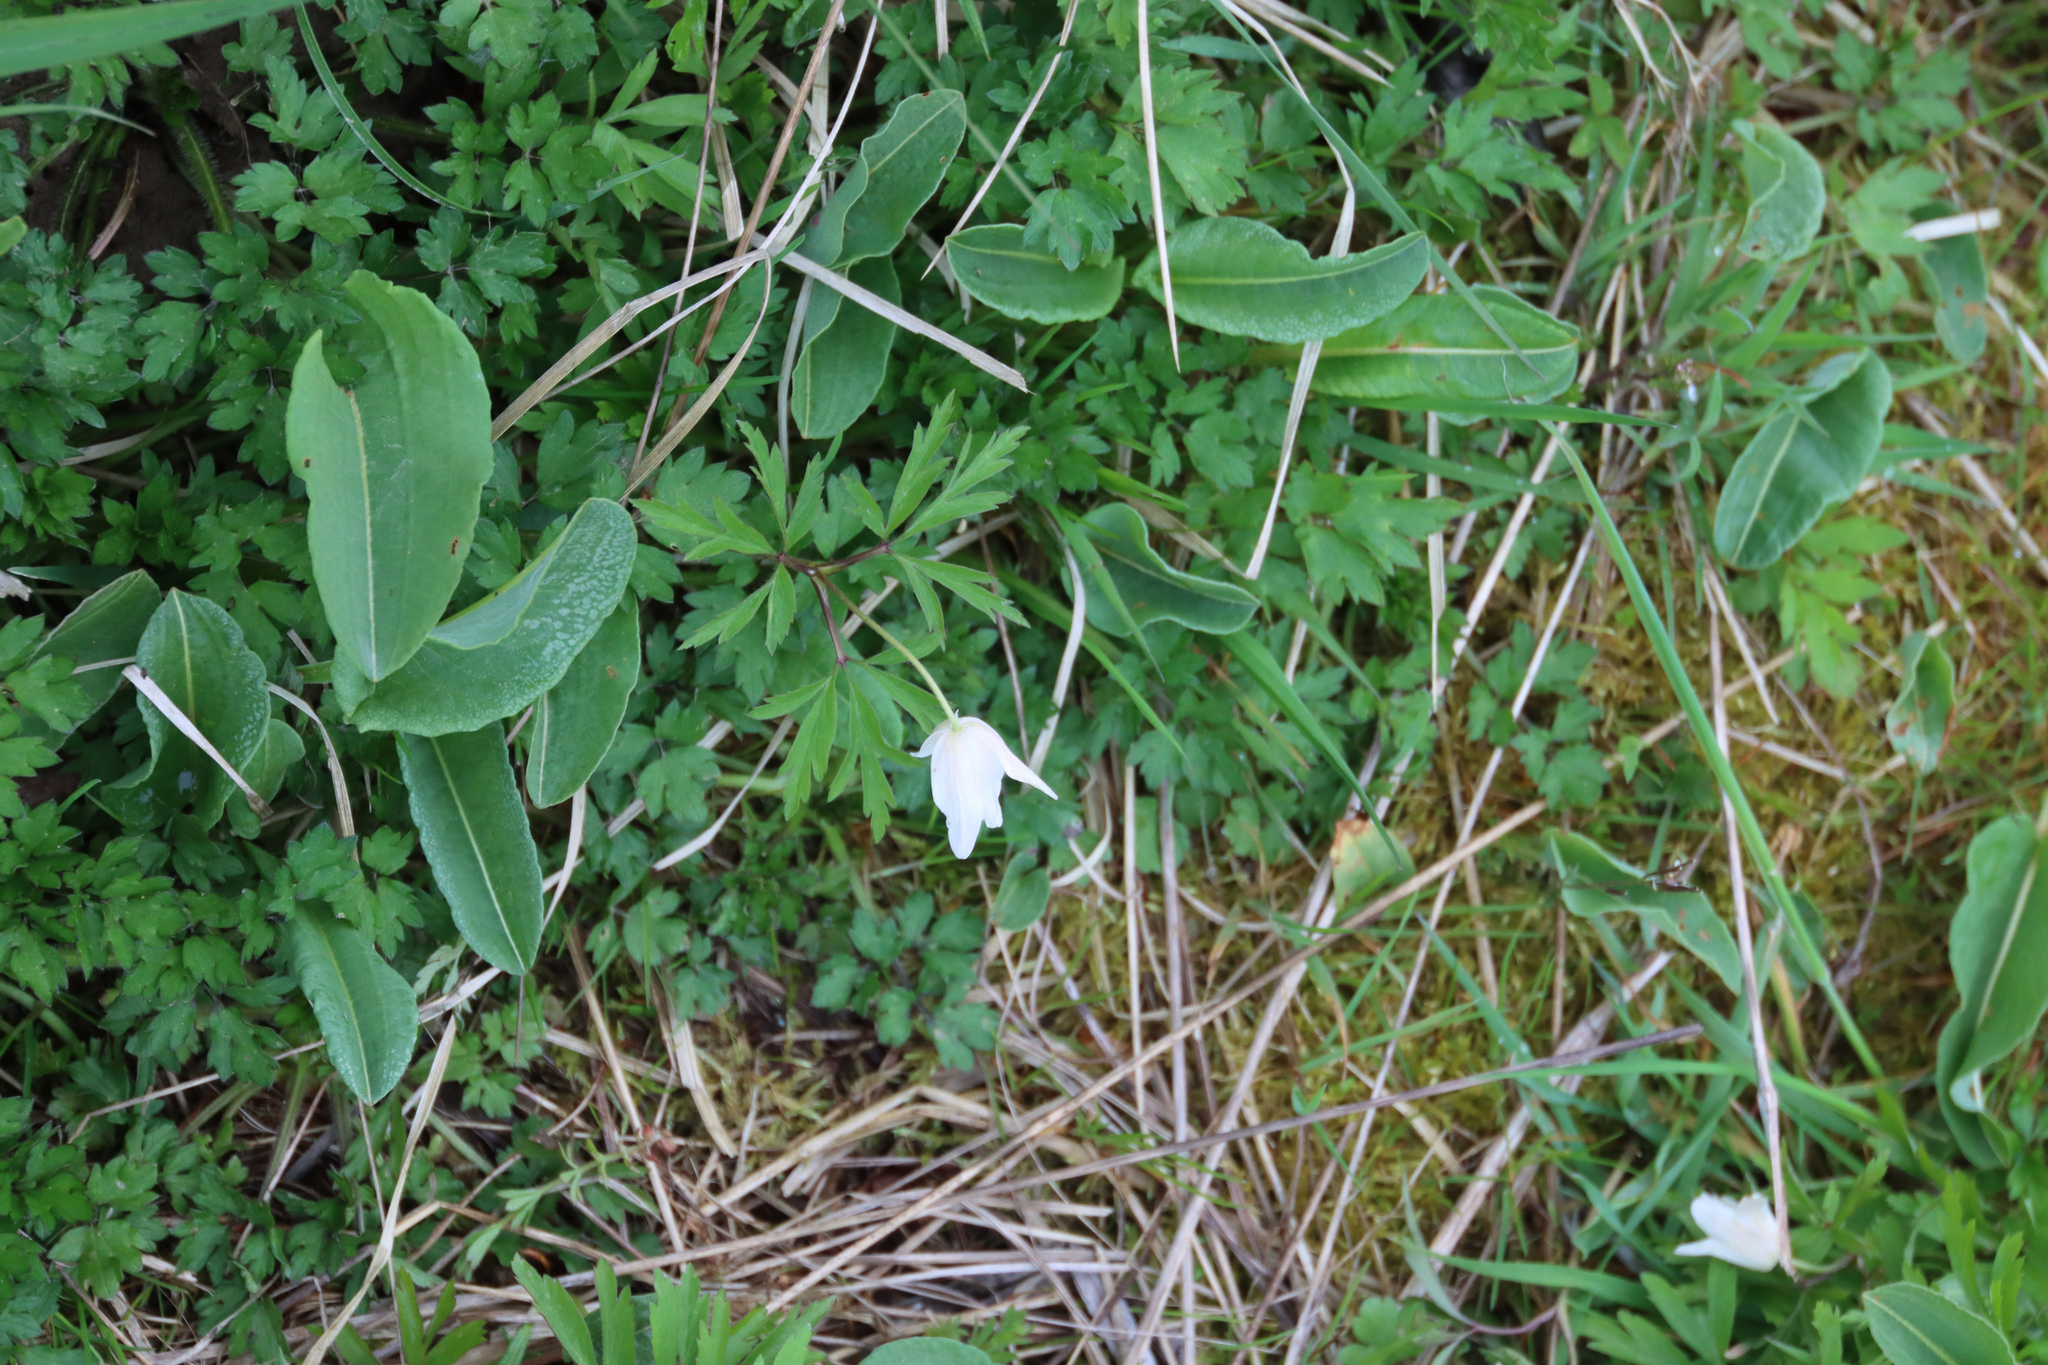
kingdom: Plantae
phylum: Tracheophyta
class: Magnoliopsida
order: Ranunculales
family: Ranunculaceae
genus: Anemone
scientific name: Anemone nemorosa
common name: Wood anemone
